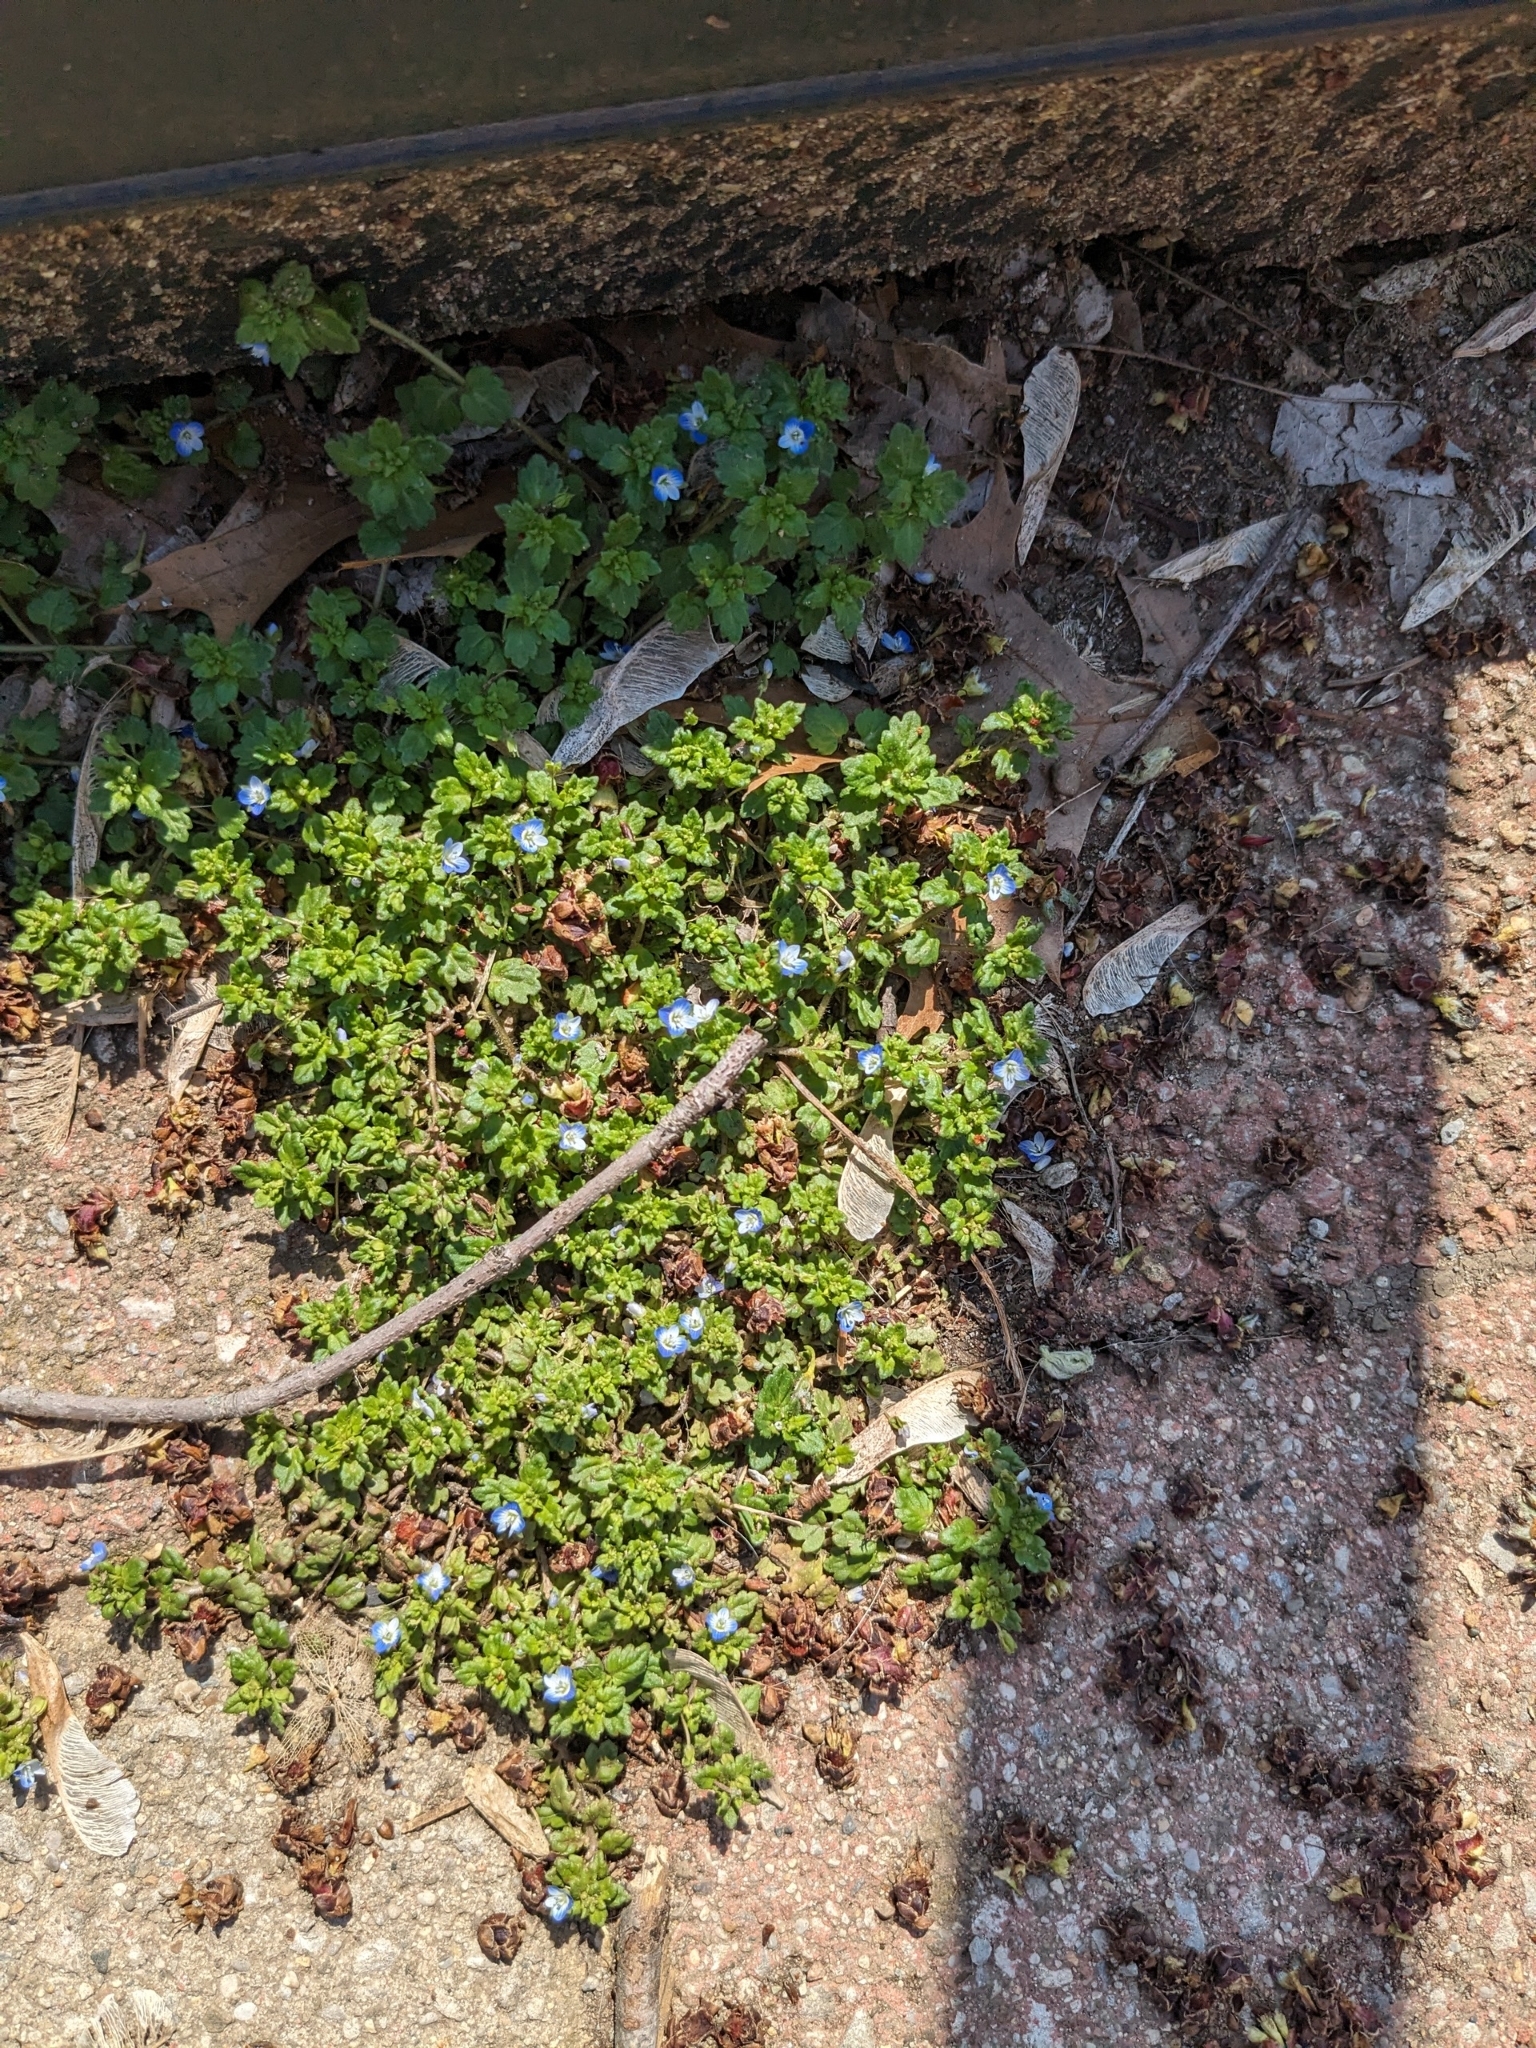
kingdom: Plantae
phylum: Tracheophyta
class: Magnoliopsida
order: Lamiales
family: Plantaginaceae
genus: Veronica
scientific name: Veronica polita
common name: Grey field-speedwell
